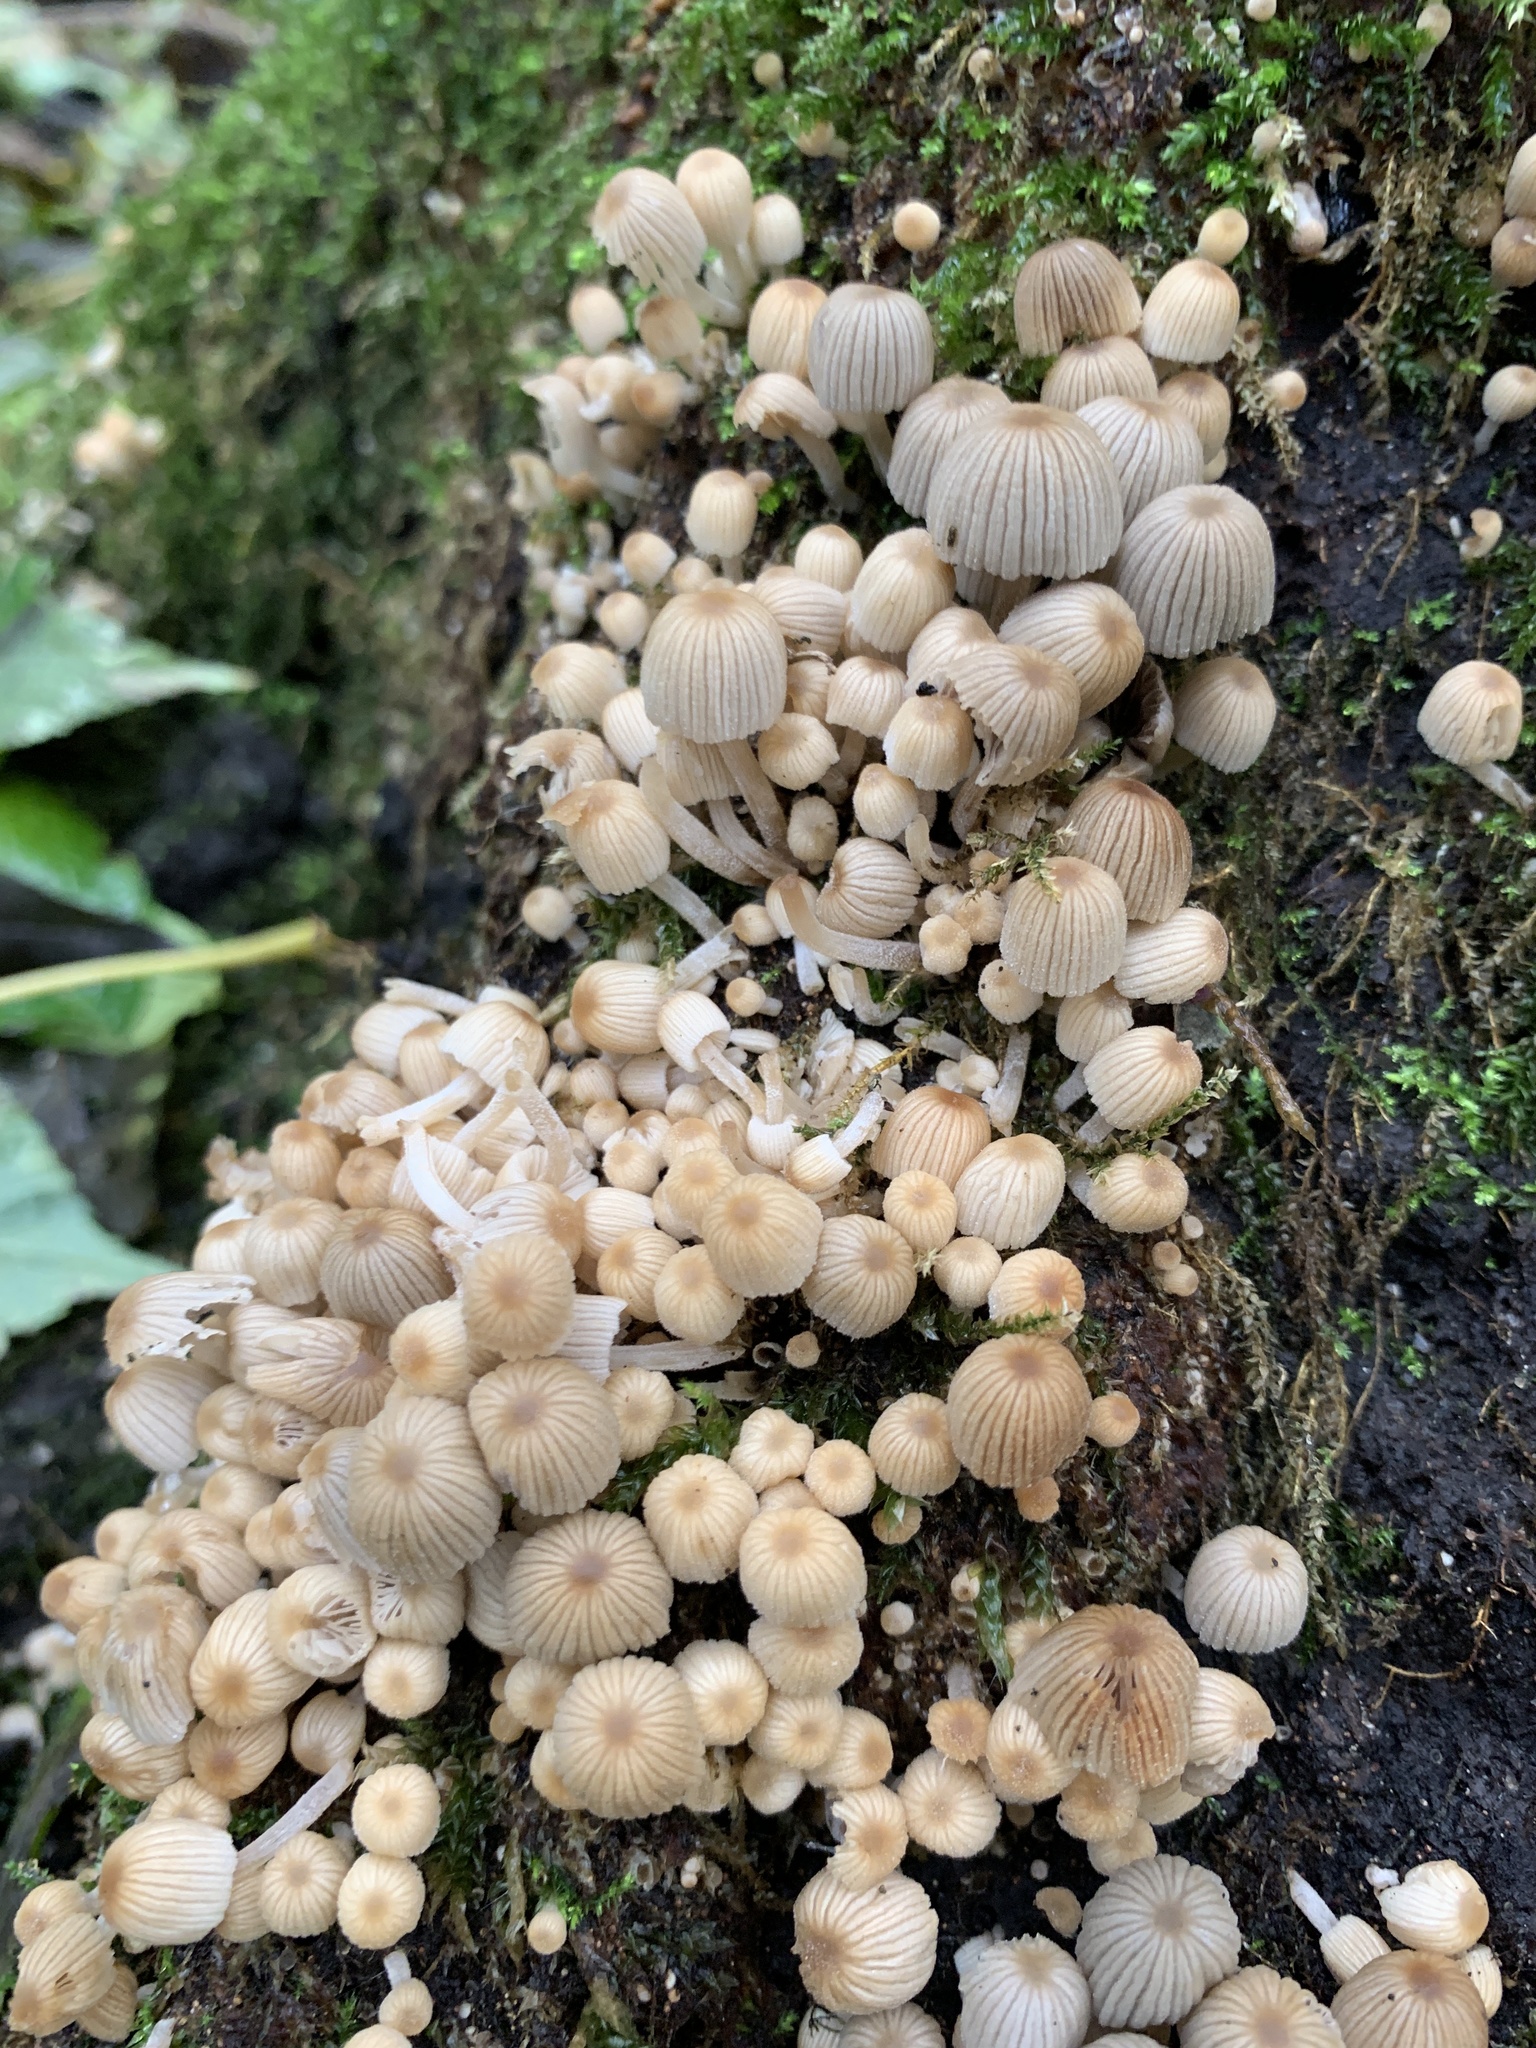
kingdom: Fungi
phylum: Basidiomycota
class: Agaricomycetes
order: Agaricales
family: Psathyrellaceae
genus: Coprinellus
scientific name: Coprinellus disseminatus
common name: Fairies' bonnets
